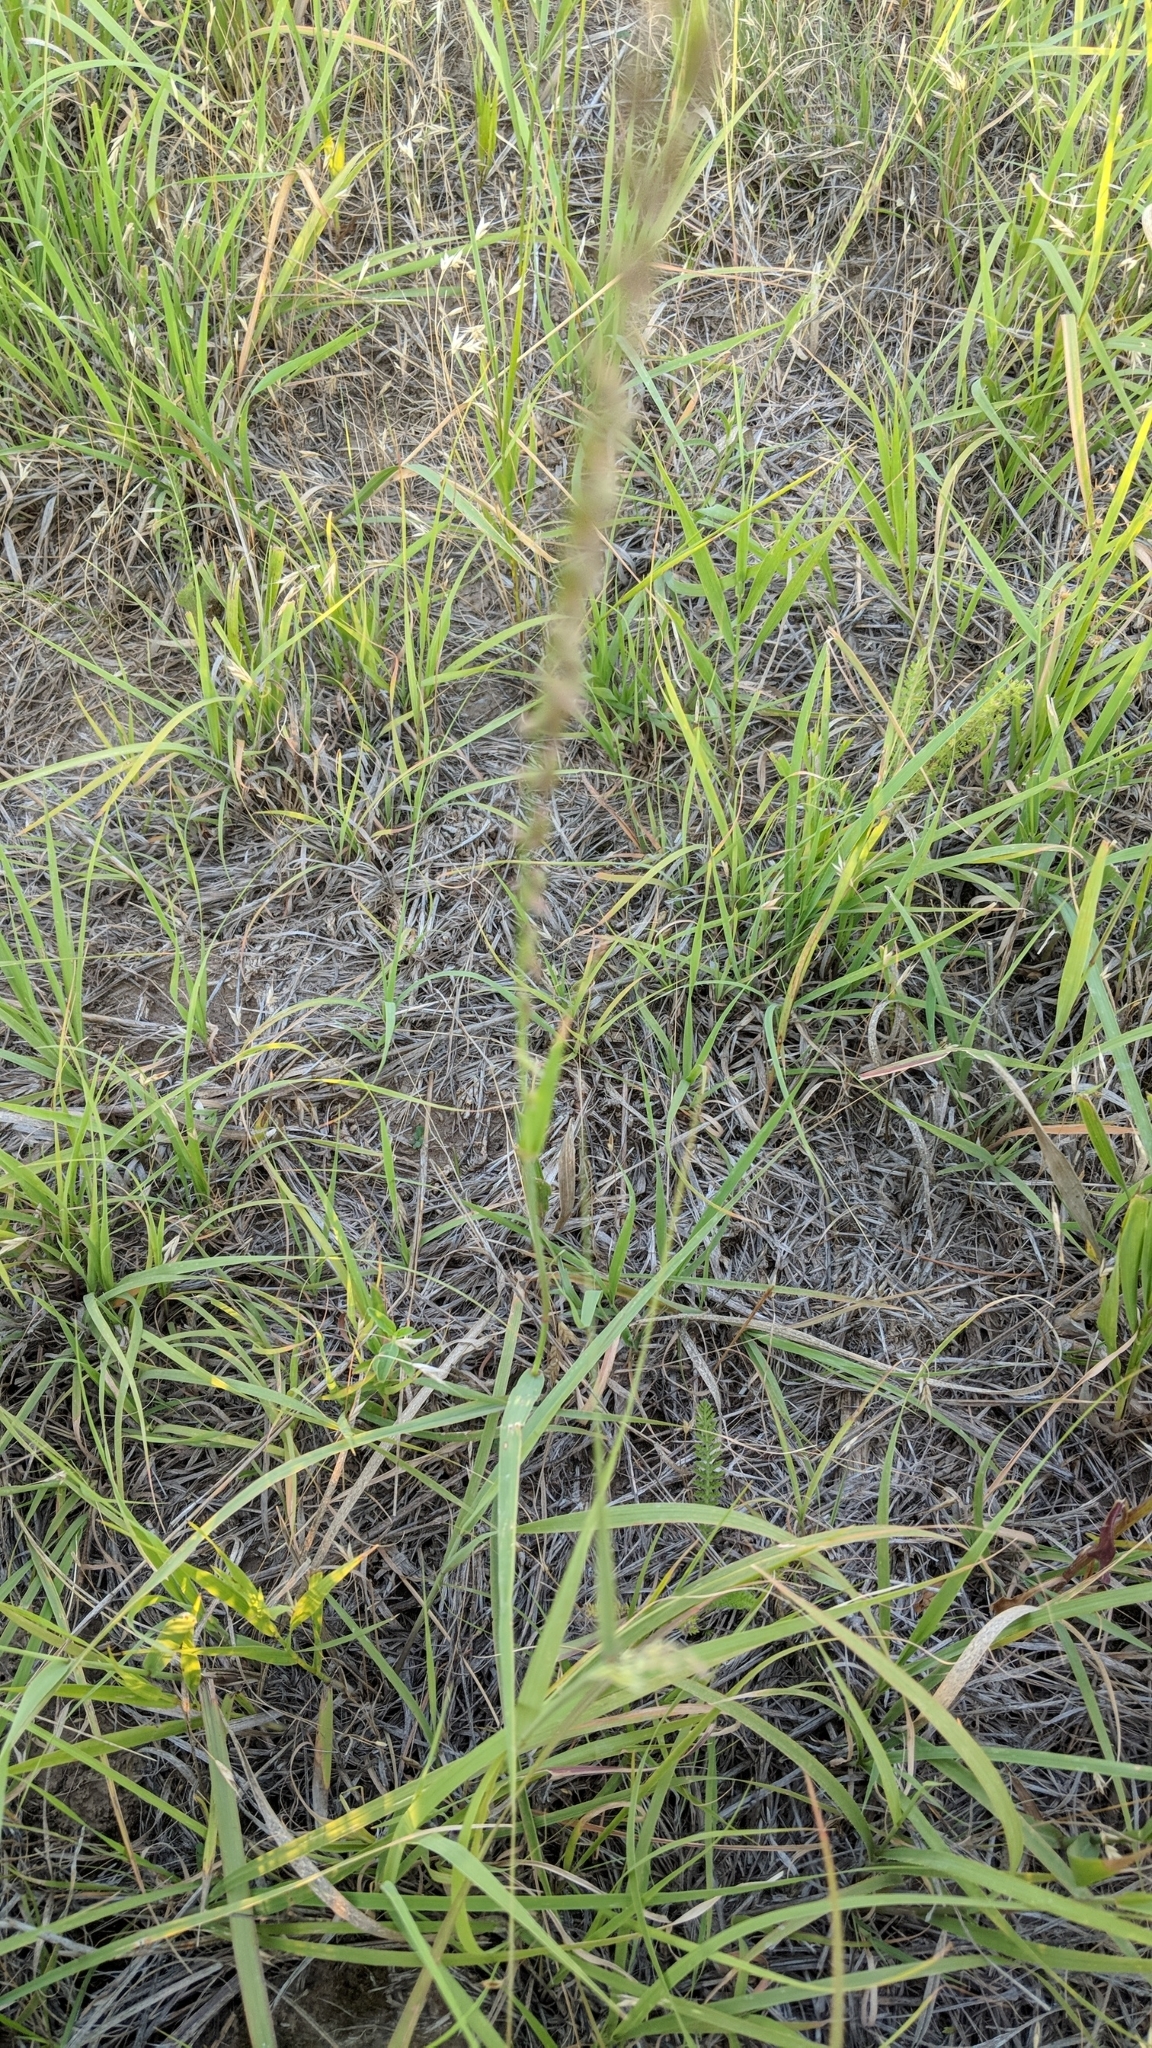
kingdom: Plantae
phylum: Tracheophyta
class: Liliopsida
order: Poales
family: Poaceae
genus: Bouteloua
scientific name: Bouteloua curtipendula
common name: Side-oats grama
